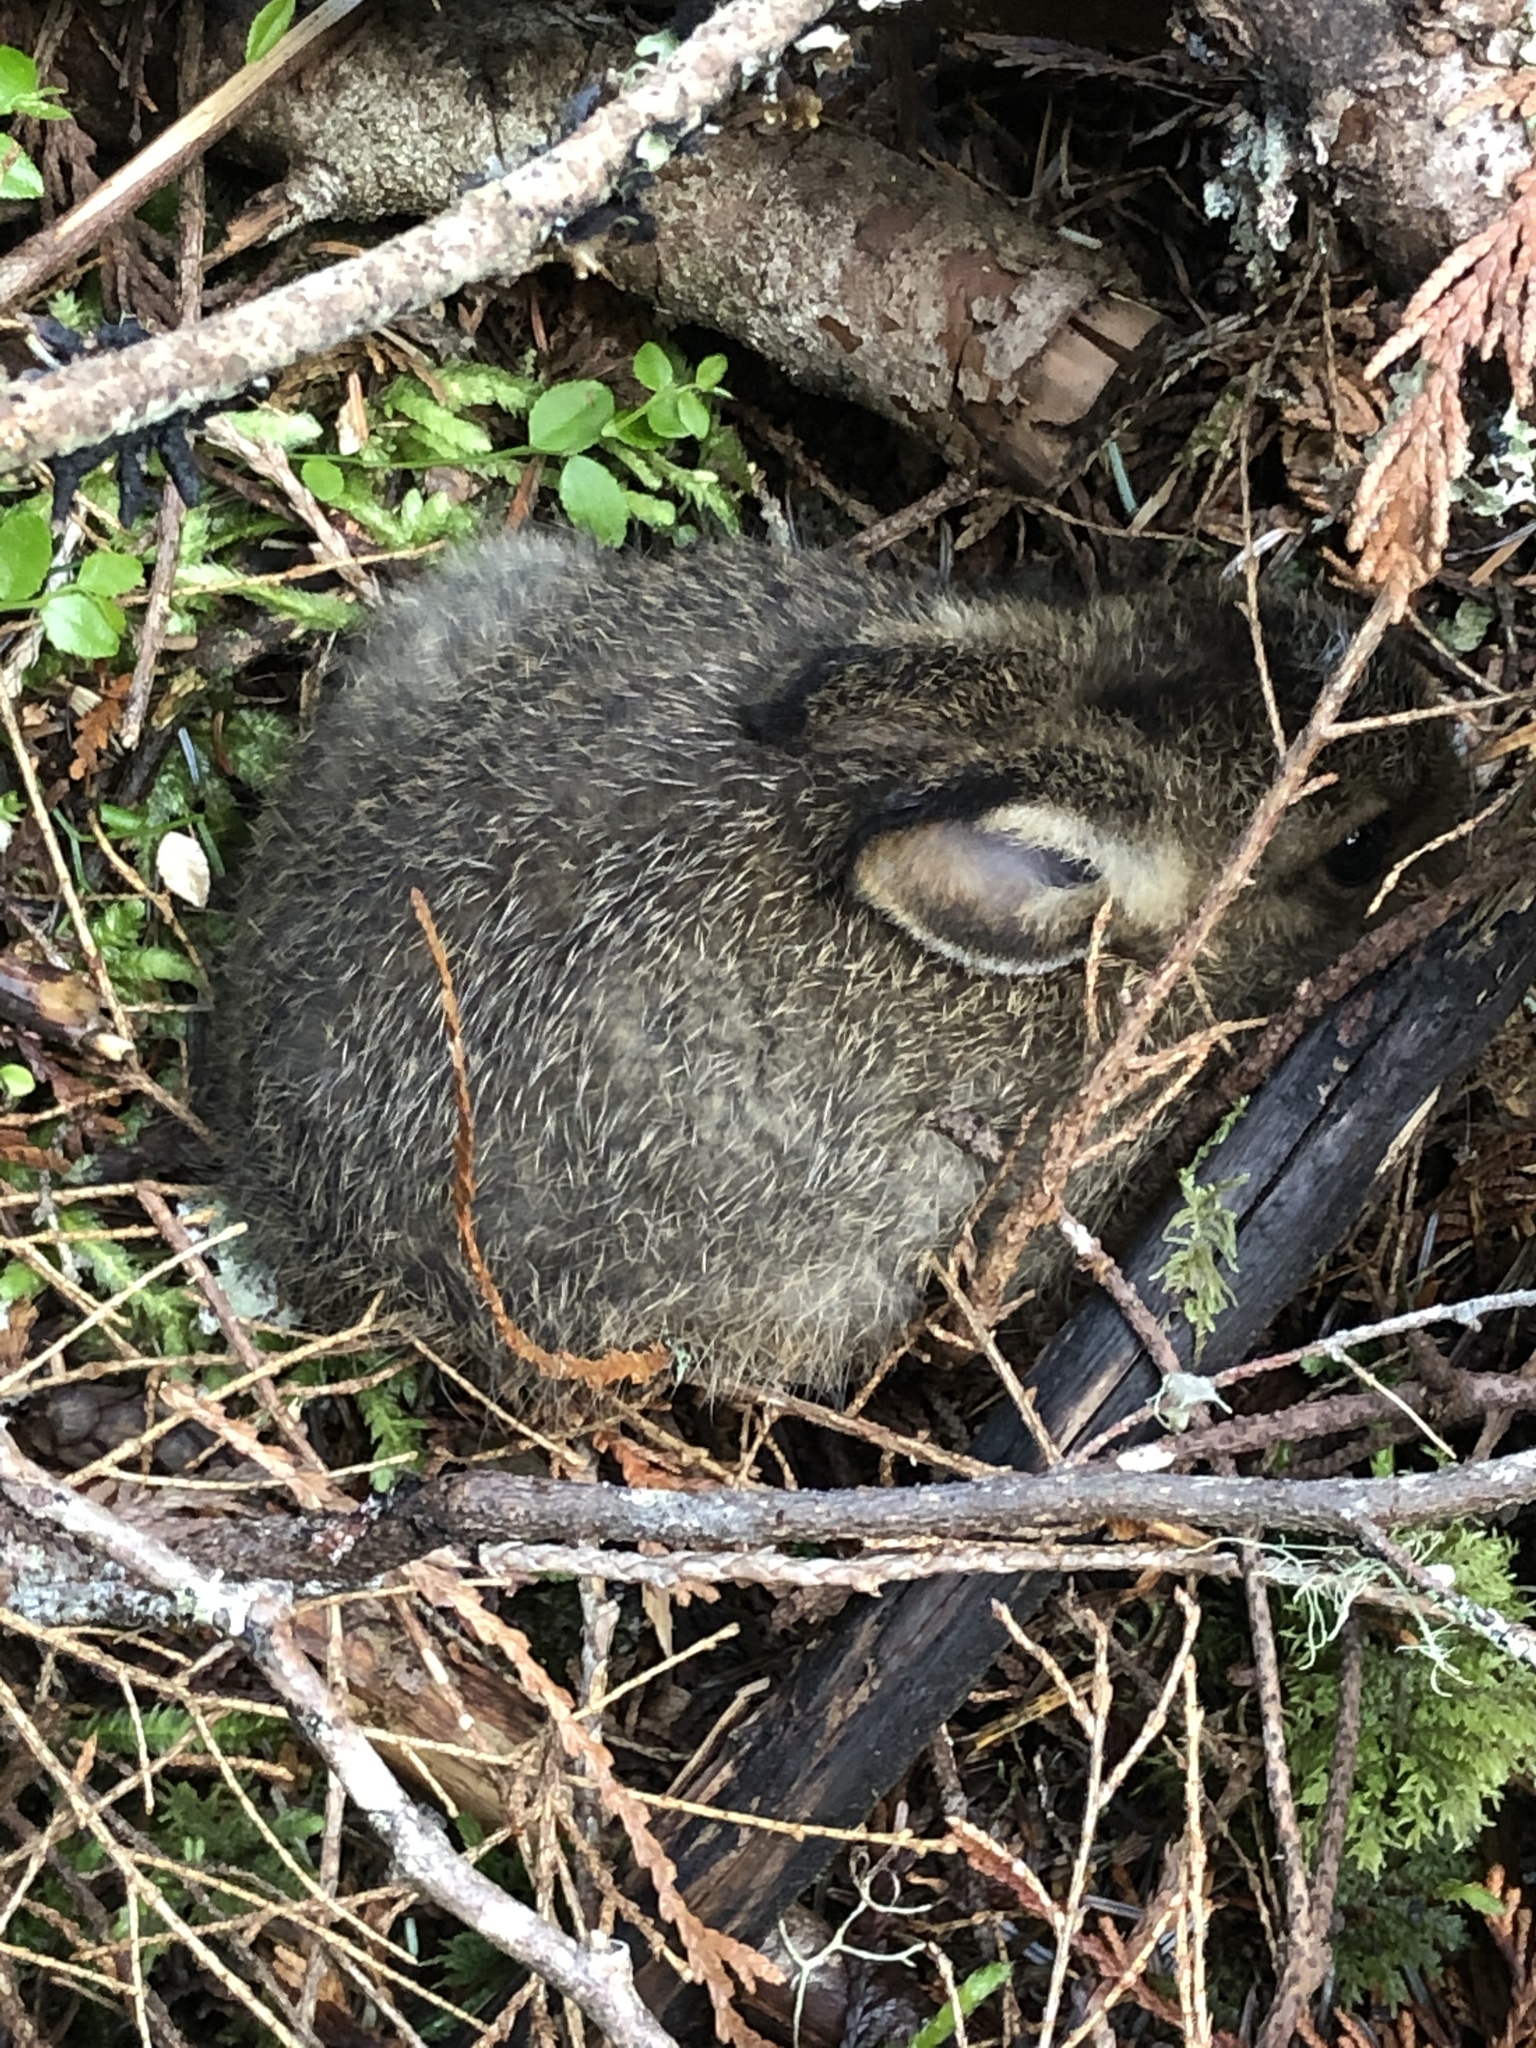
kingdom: Animalia
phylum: Chordata
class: Mammalia
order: Lagomorpha
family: Leporidae
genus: Lepus
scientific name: Lepus americanus
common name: Snowshoe hare
